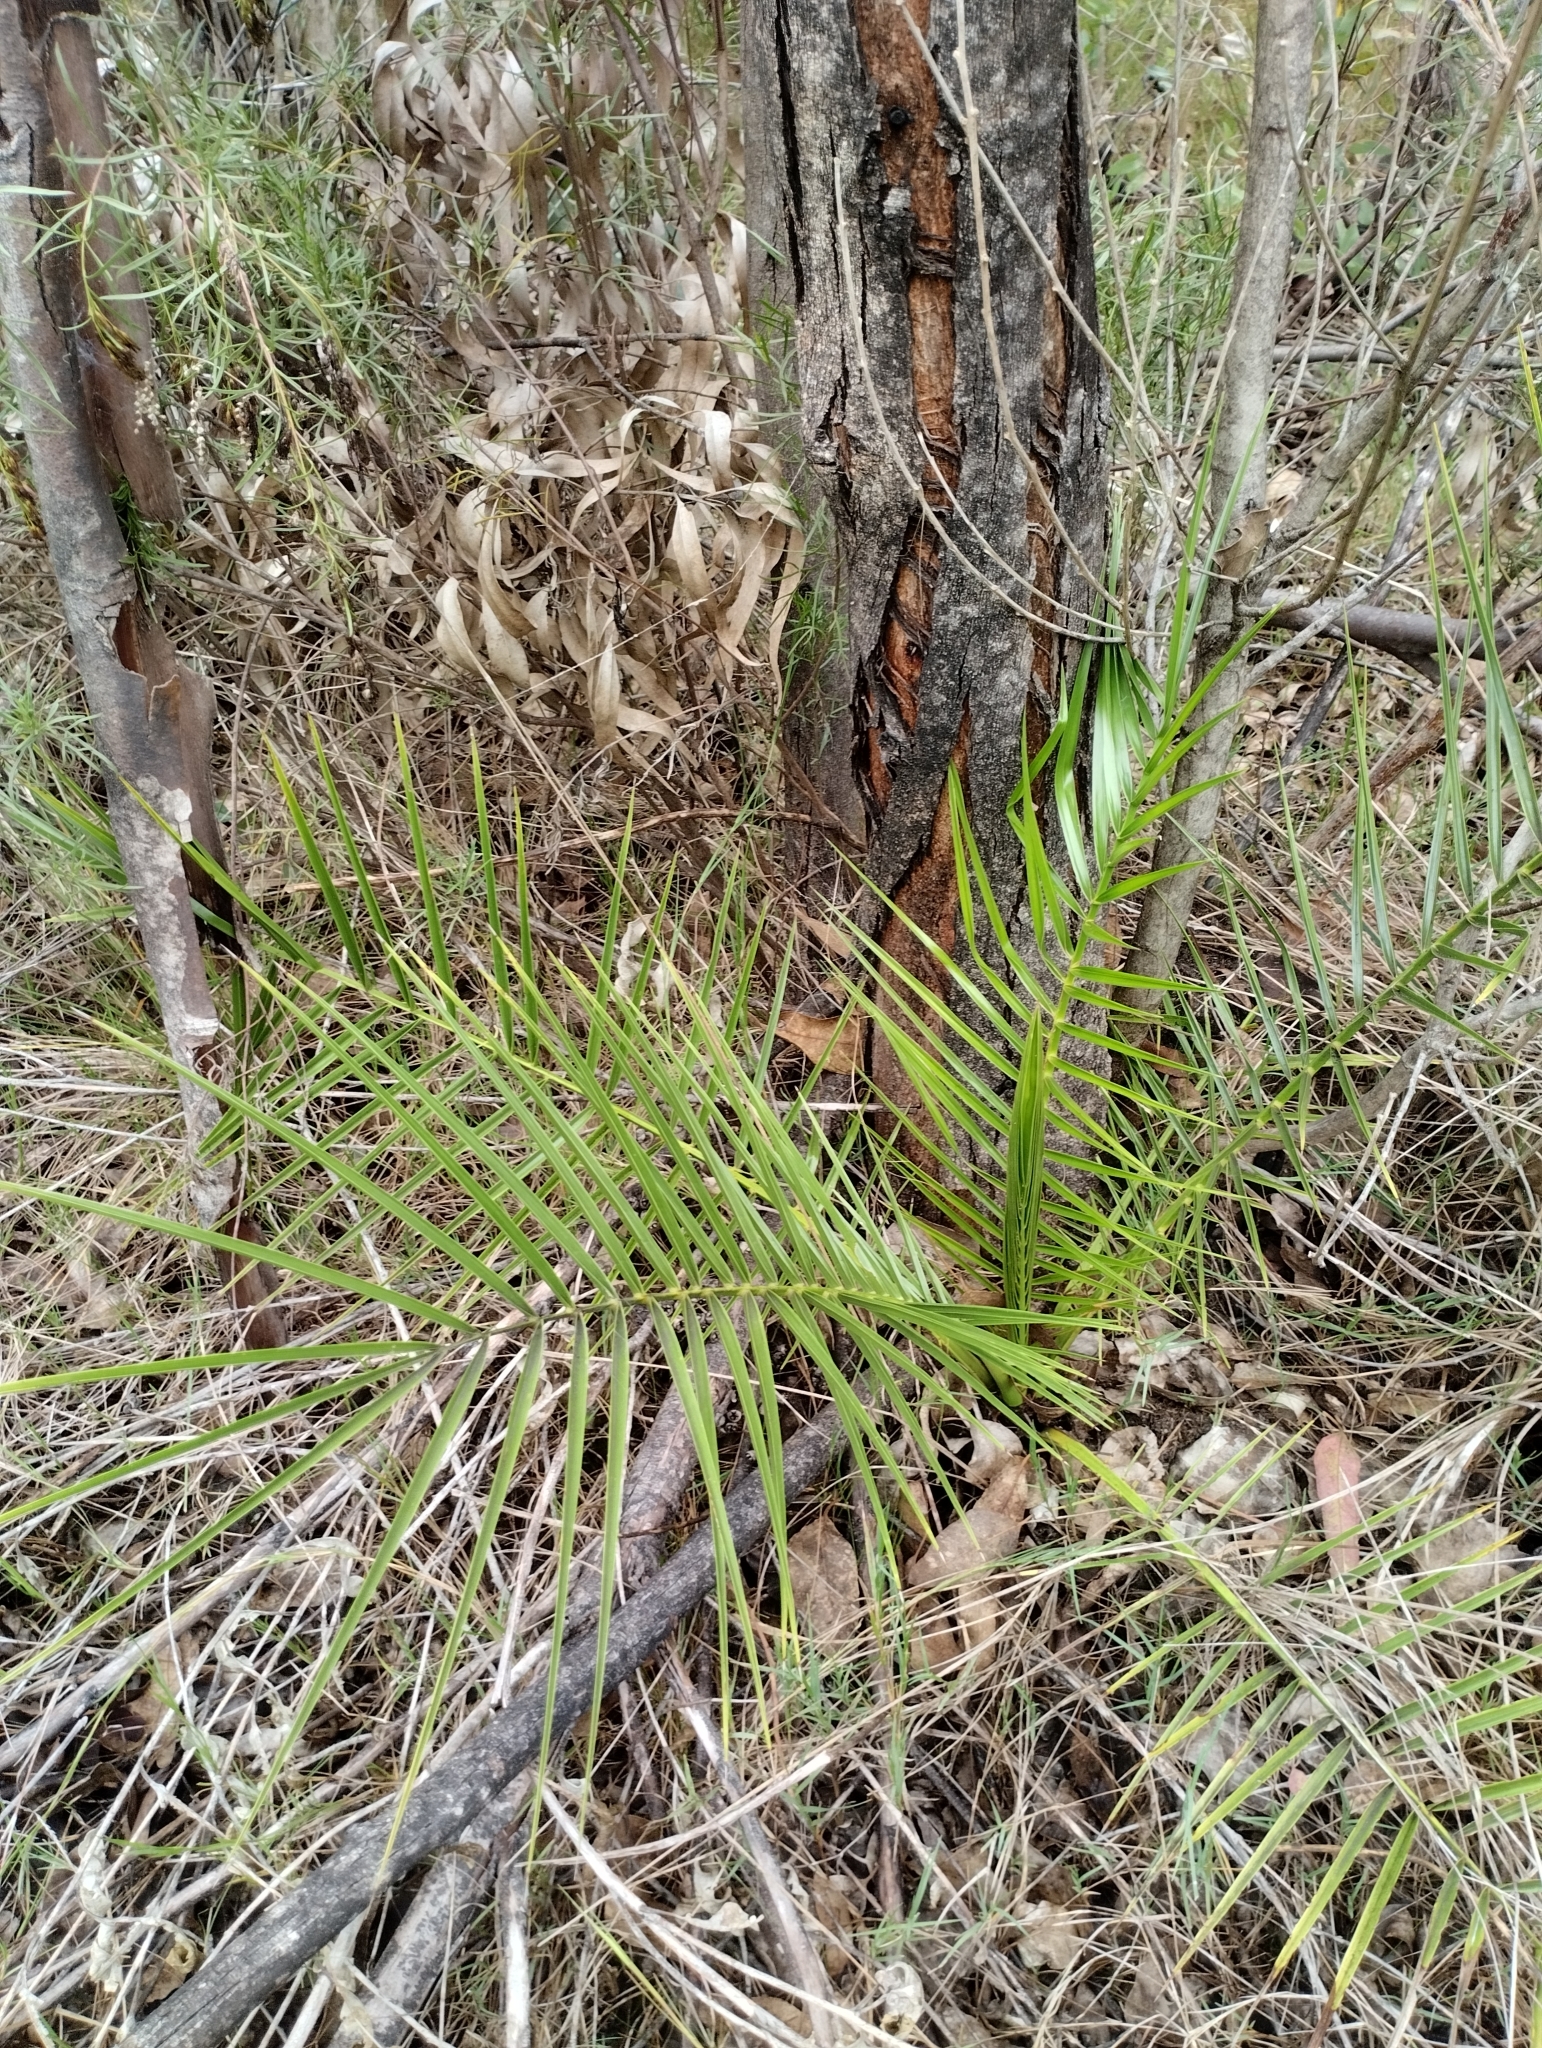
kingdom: Plantae
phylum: Tracheophyta
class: Liliopsida
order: Arecales
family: Arecaceae
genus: Phoenix
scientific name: Phoenix canariensis
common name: Canary island date palm
